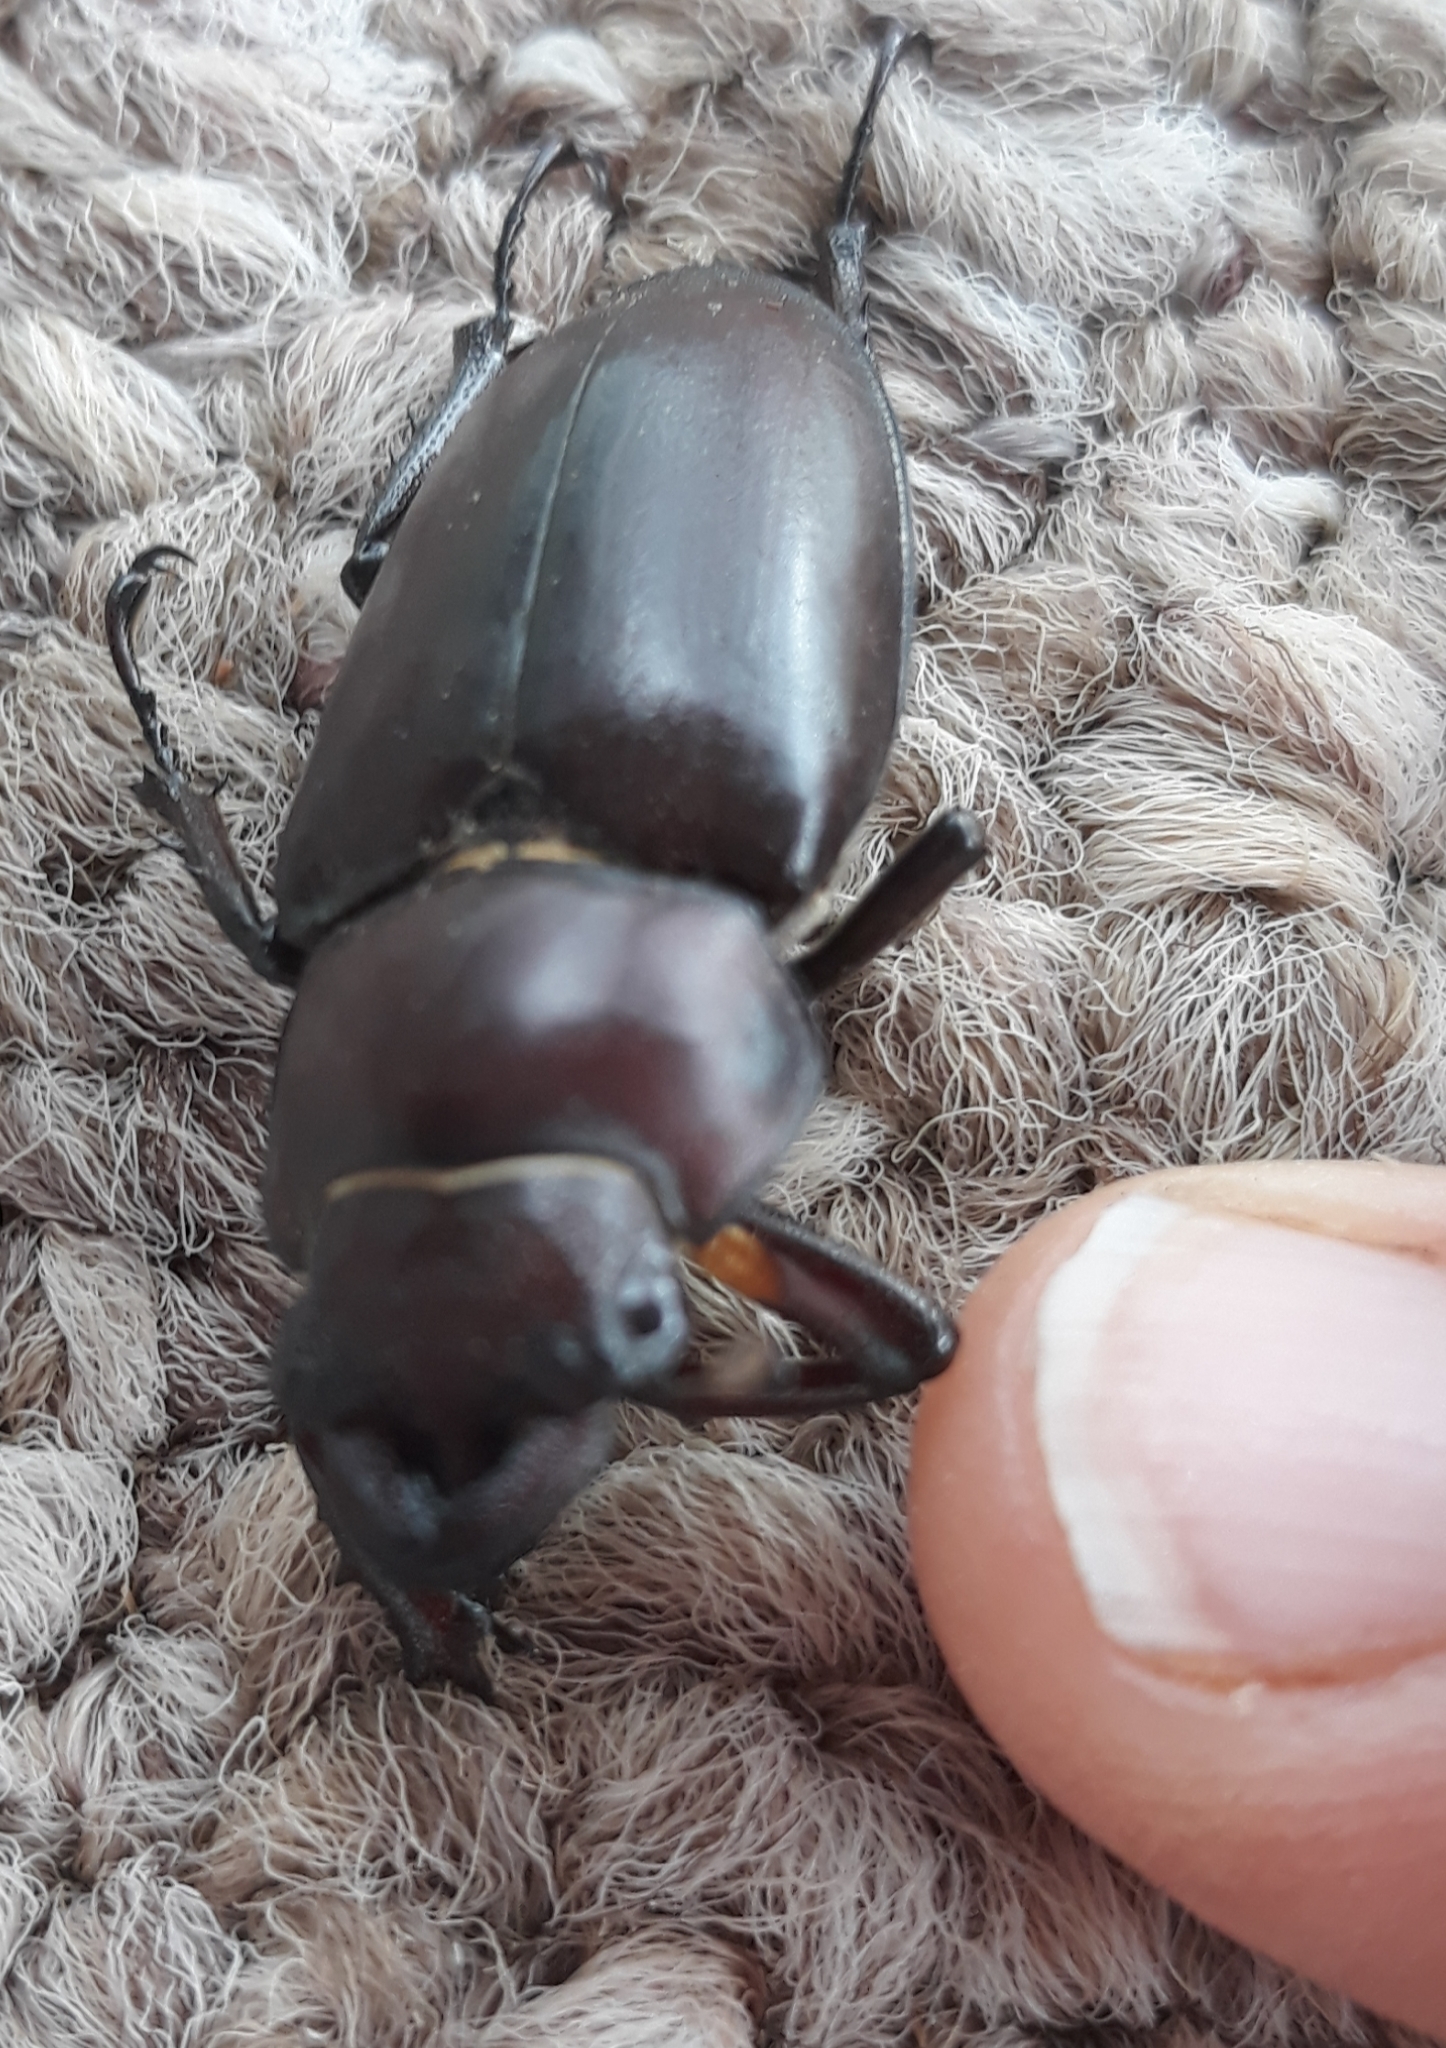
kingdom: Animalia
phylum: Arthropoda
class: Insecta
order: Coleoptera
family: Lucanidae
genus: Lucanus
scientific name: Lucanus elaphus
